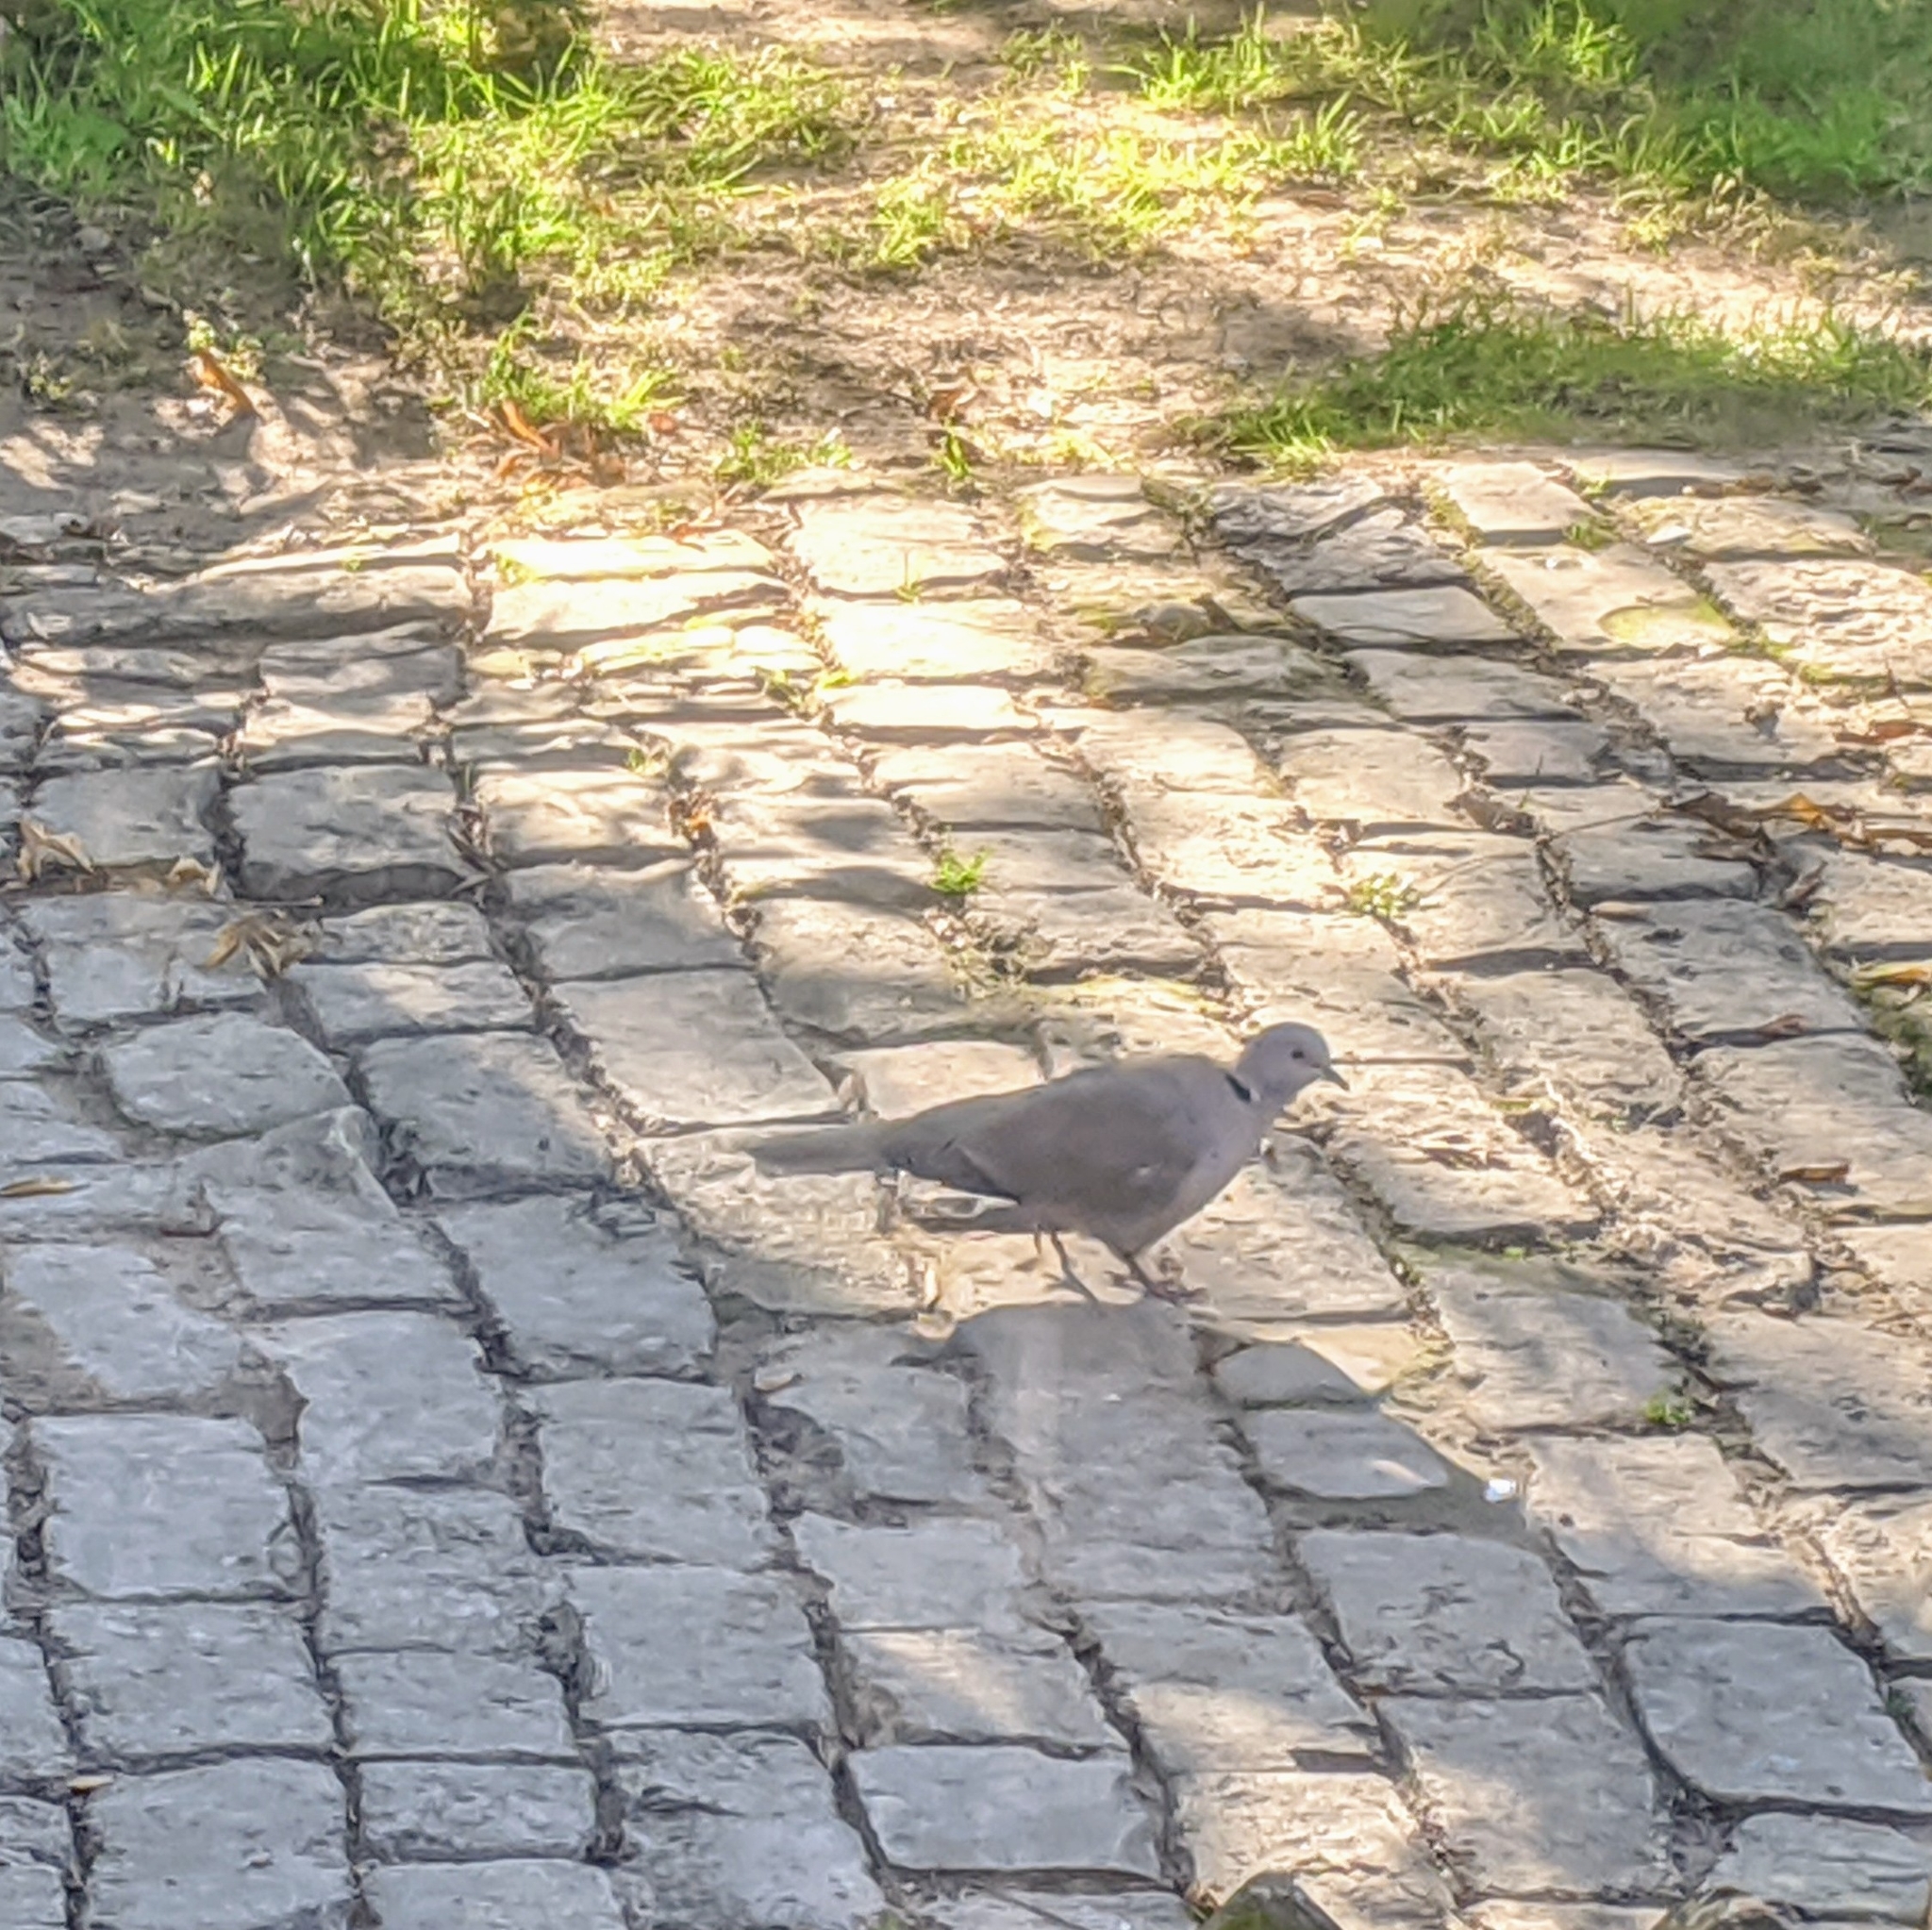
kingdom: Animalia
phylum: Chordata
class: Aves
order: Columbiformes
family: Columbidae
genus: Streptopelia
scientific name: Streptopelia decaocto
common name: Eurasian collared dove
